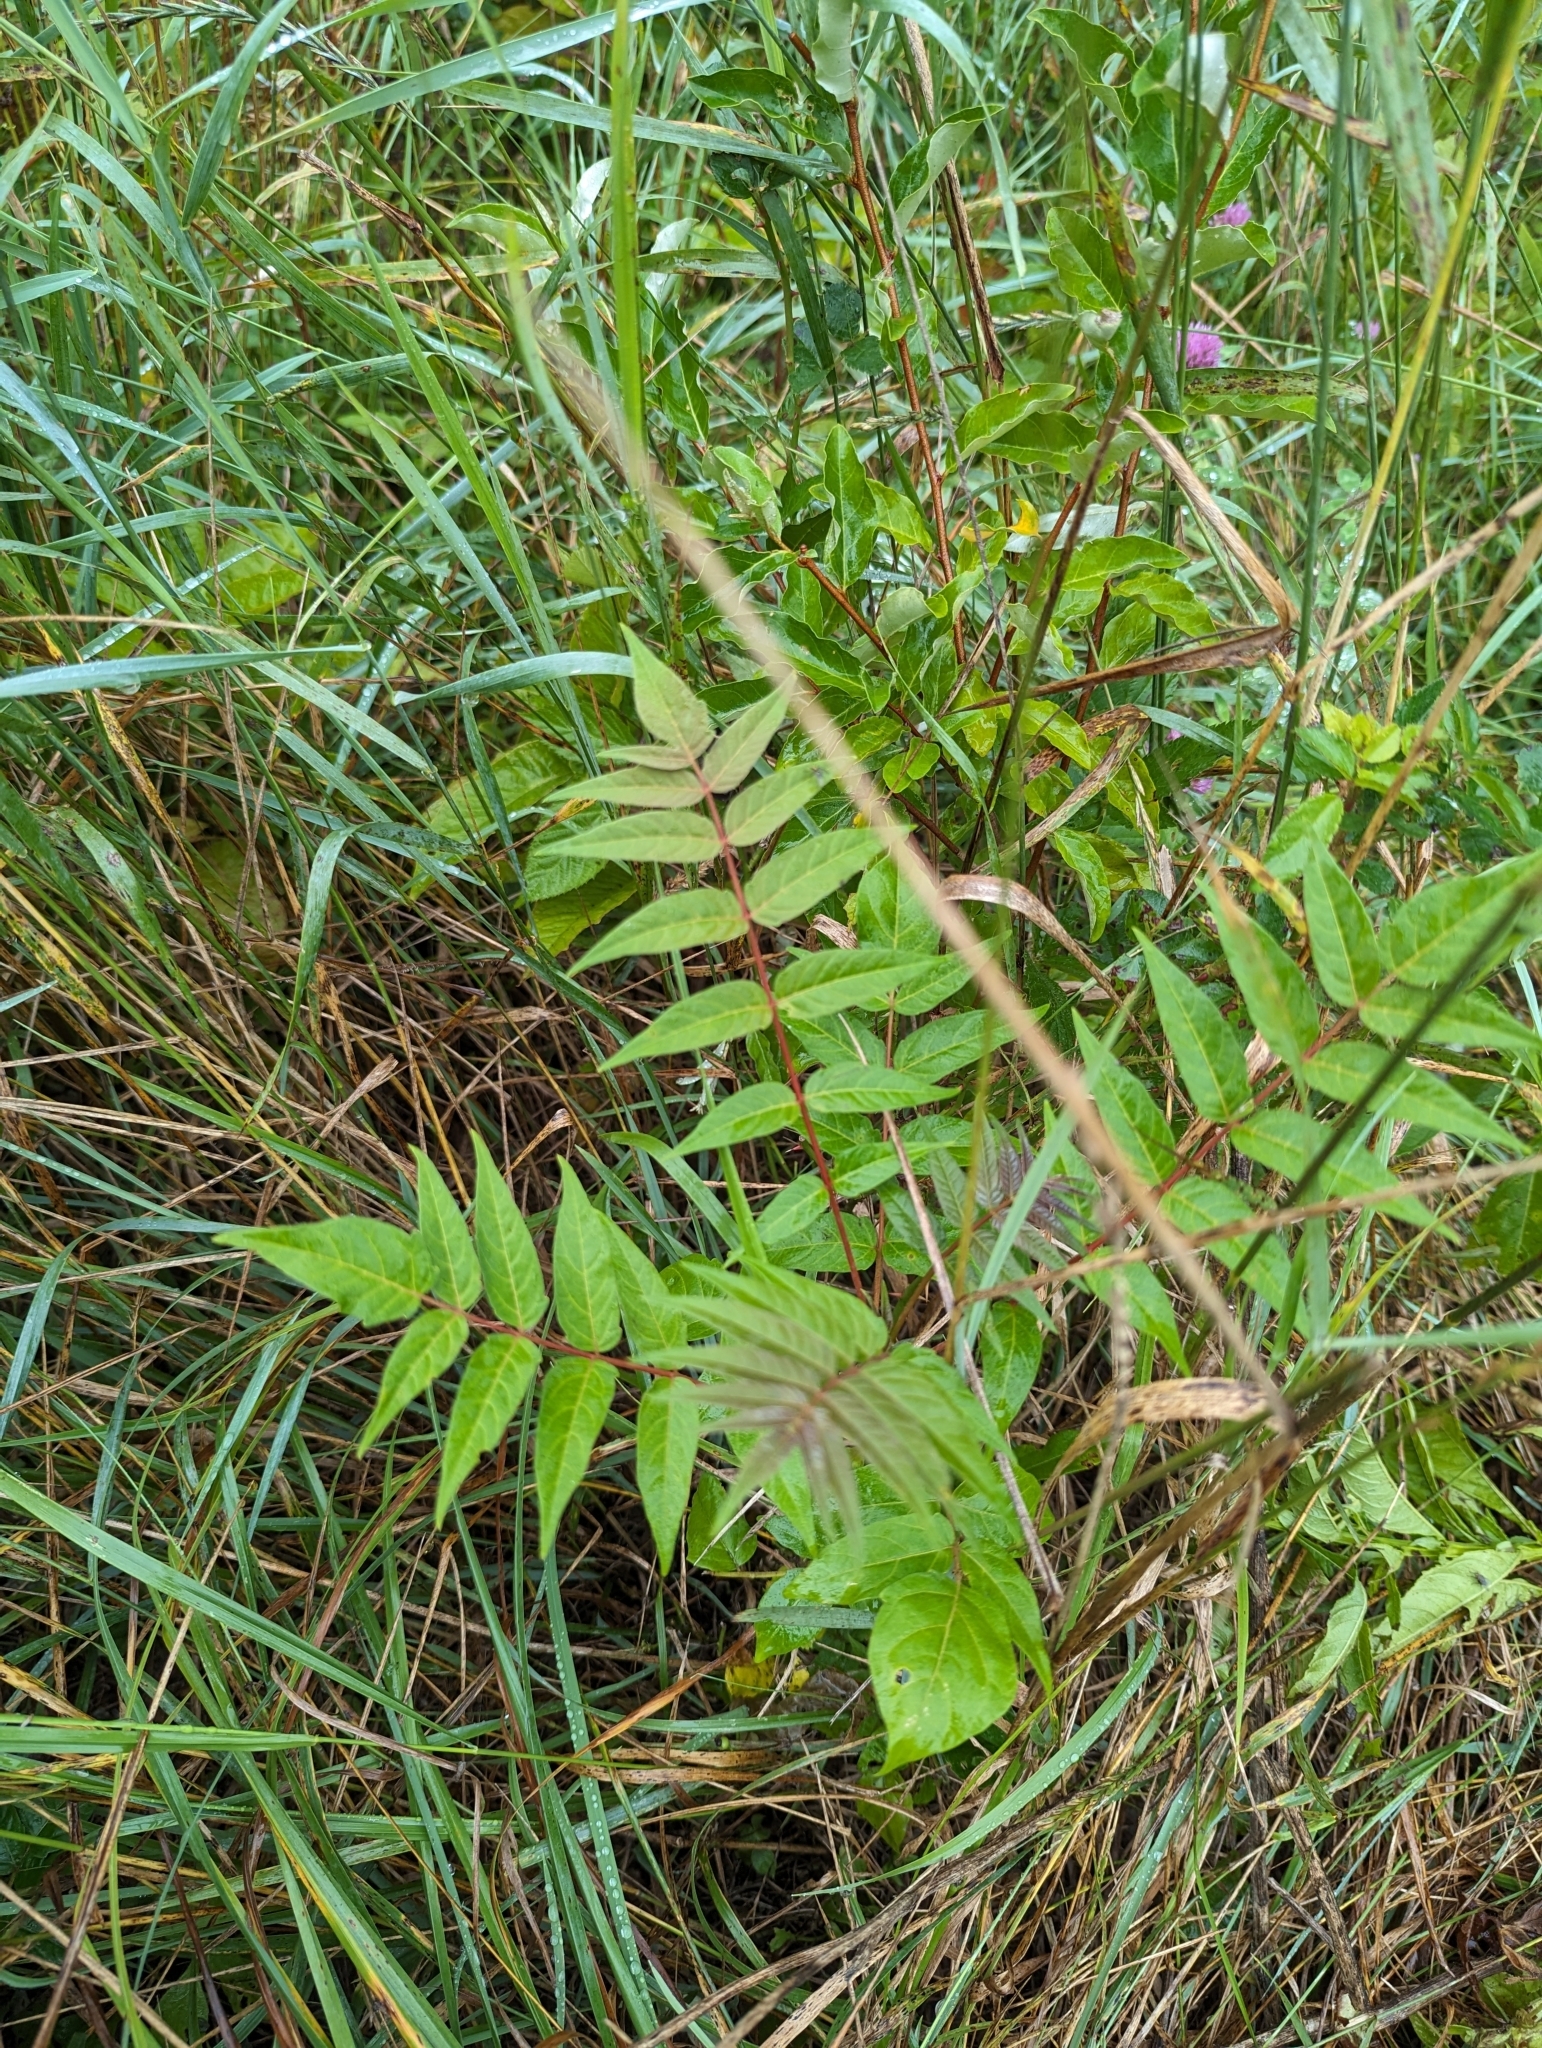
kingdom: Plantae
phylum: Tracheophyta
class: Magnoliopsida
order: Sapindales
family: Simaroubaceae
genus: Ailanthus
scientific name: Ailanthus altissima
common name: Tree-of-heaven
